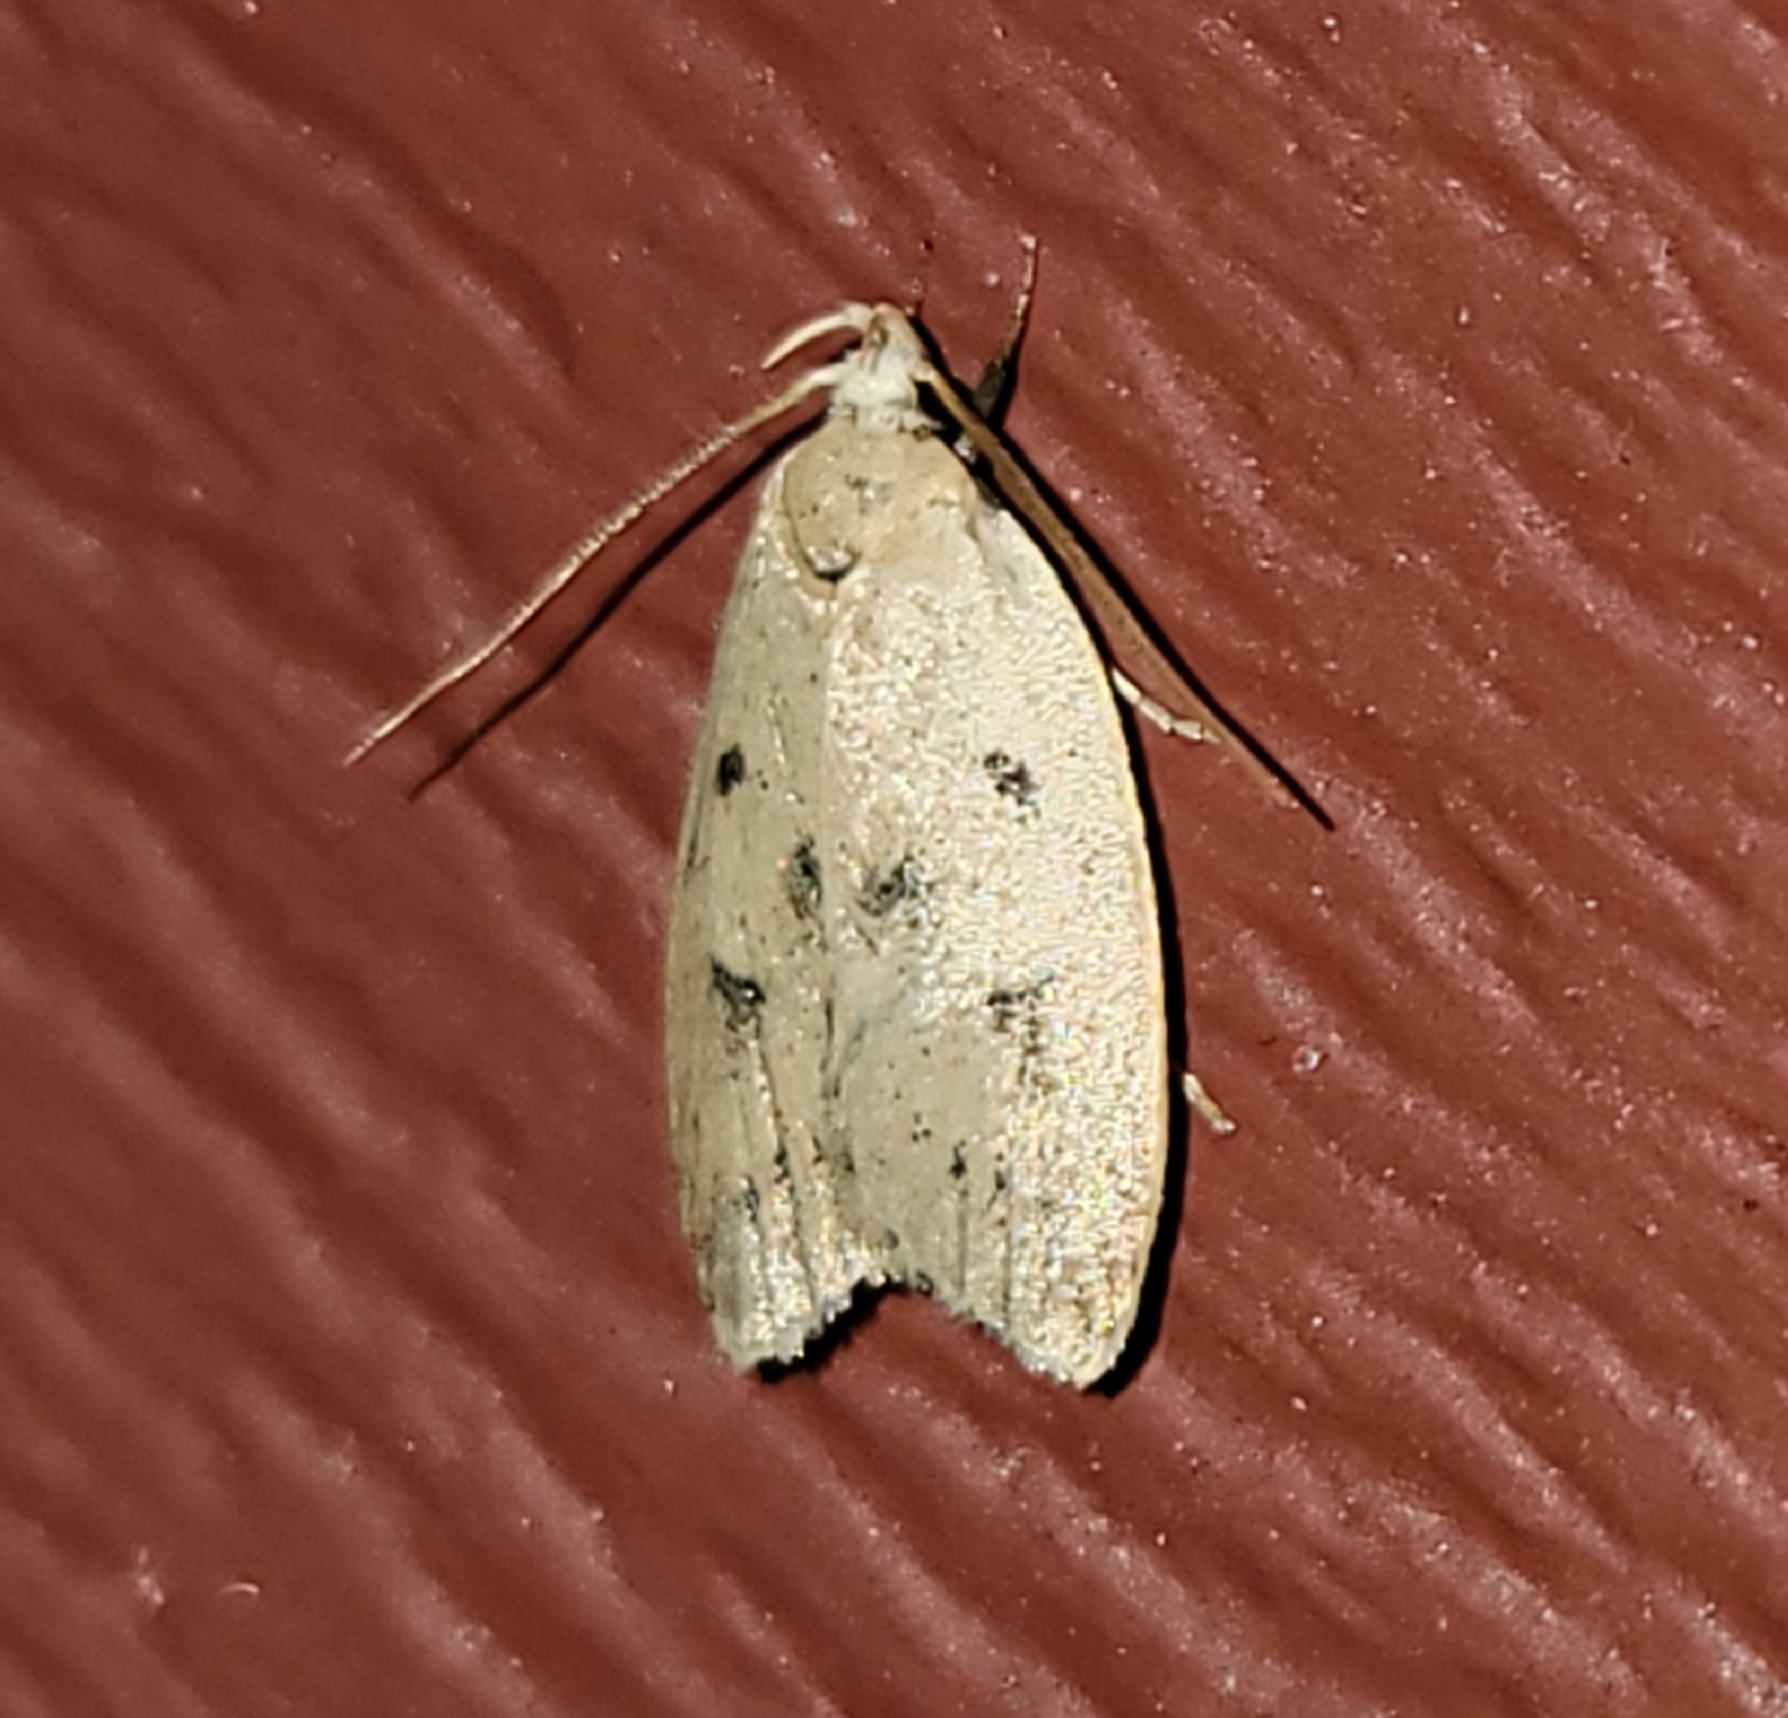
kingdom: Animalia
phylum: Arthropoda
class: Insecta
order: Lepidoptera
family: Peleopodidae
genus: Machimia
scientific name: Machimia tentoriferella
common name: Gold-striped leaftier moth
